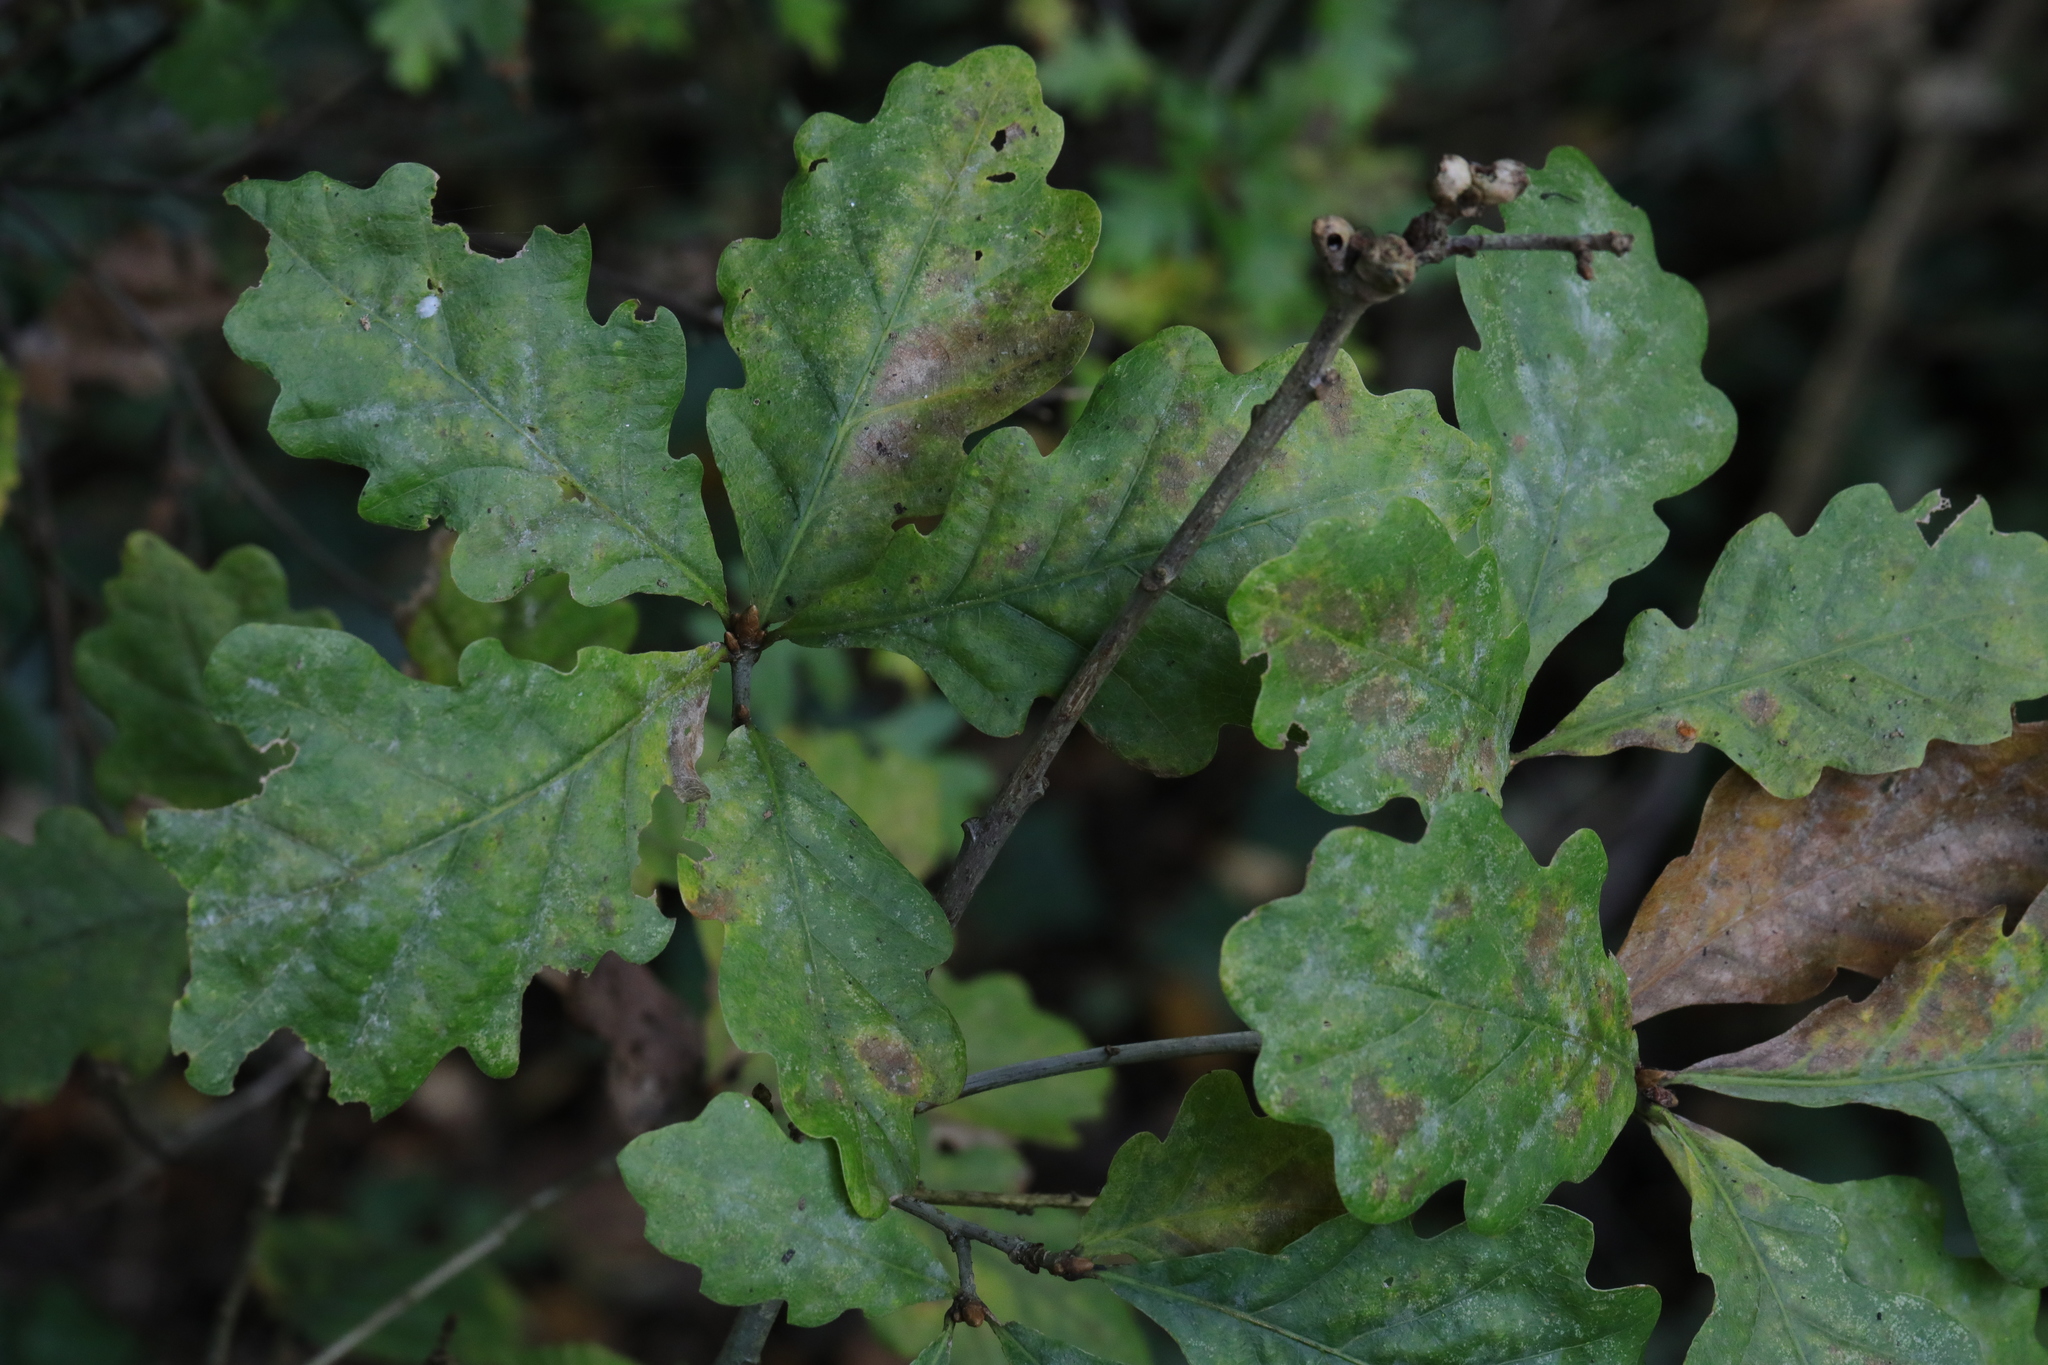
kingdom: Plantae
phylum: Tracheophyta
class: Magnoliopsida
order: Fagales
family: Fagaceae
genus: Quercus
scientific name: Quercus robur
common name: Pedunculate oak
